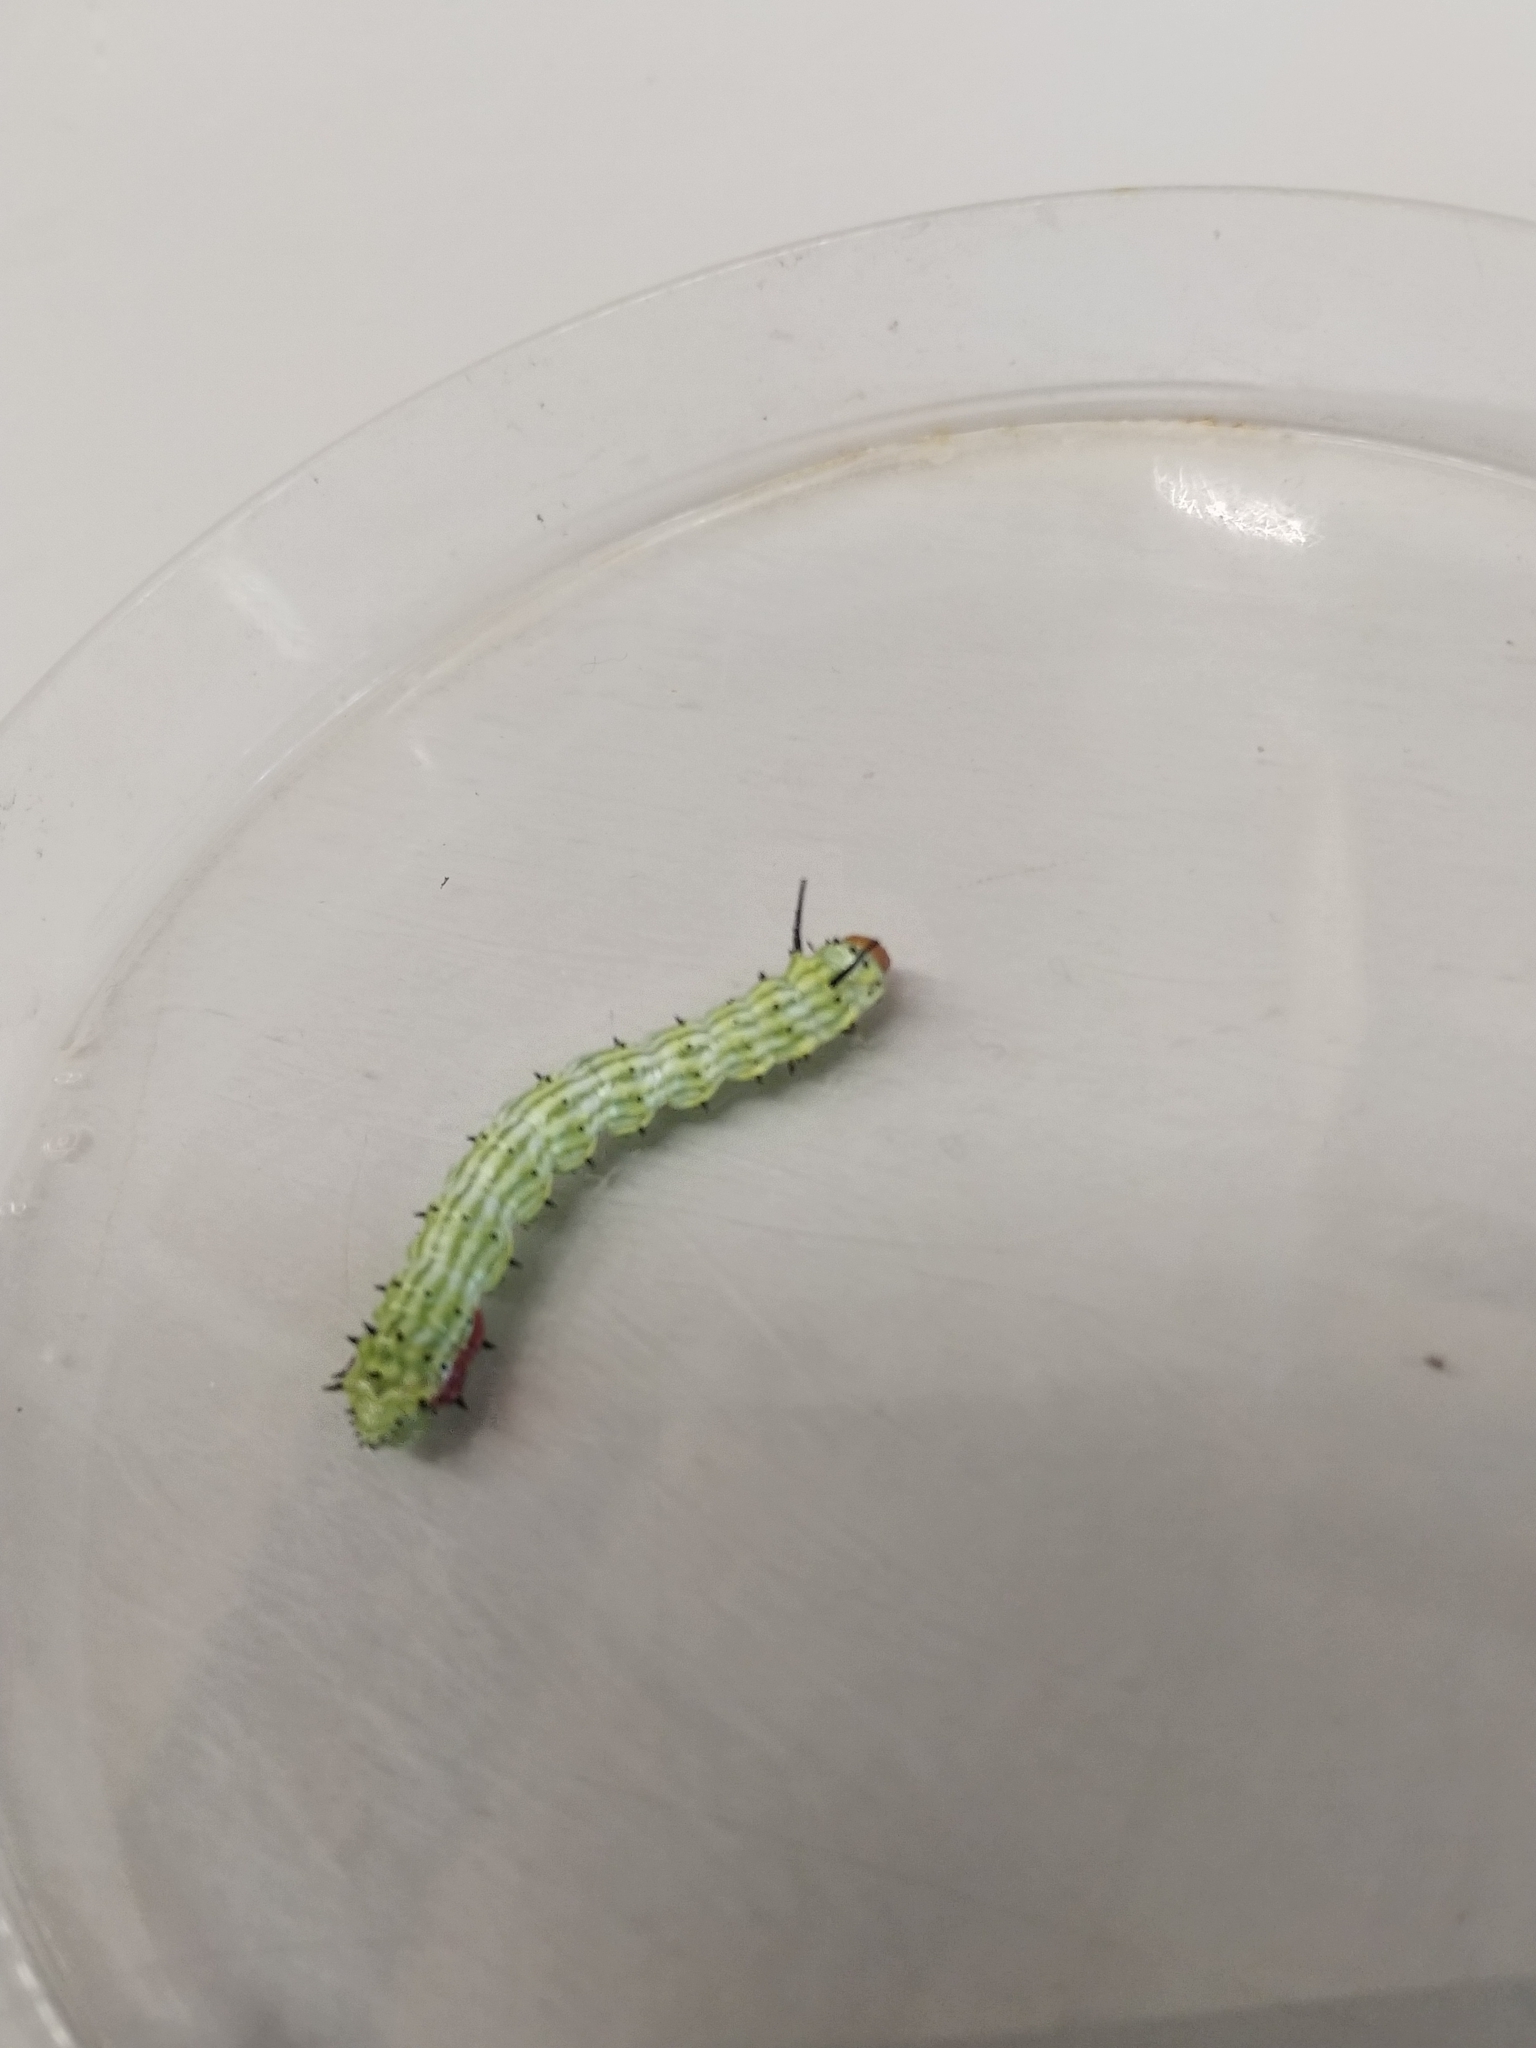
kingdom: Animalia
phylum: Arthropoda
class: Insecta
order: Lepidoptera
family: Saturniidae
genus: Dryocampa
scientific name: Dryocampa rubicunda
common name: Rosy maple moth
